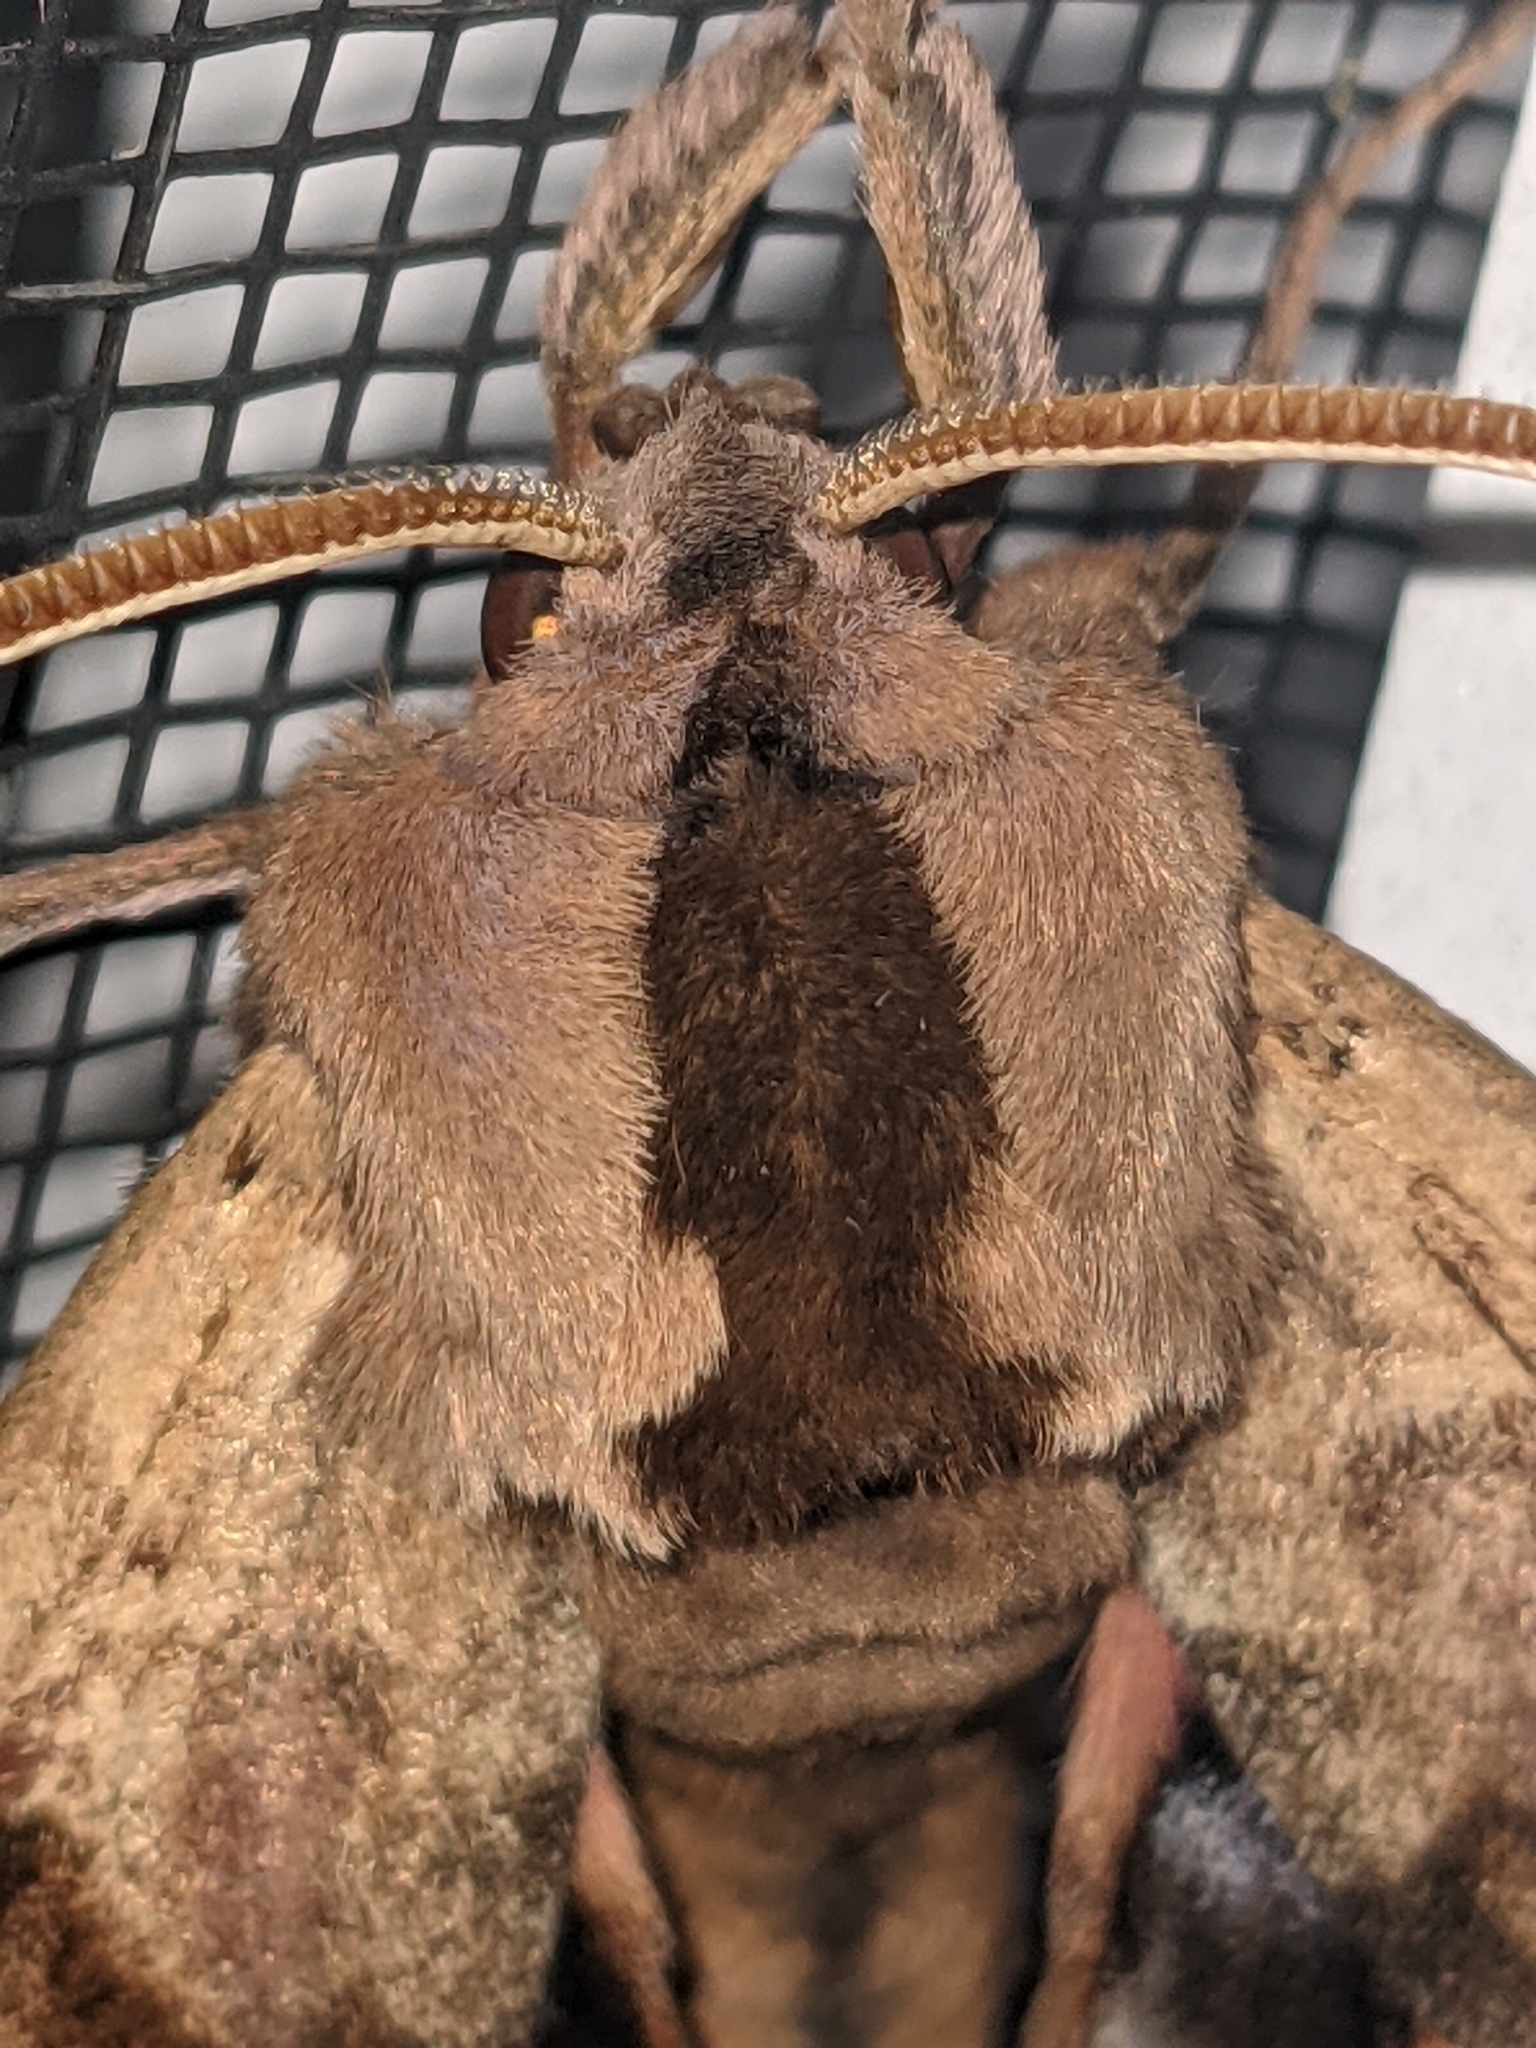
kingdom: Animalia
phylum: Arthropoda
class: Insecta
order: Lepidoptera
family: Sphingidae
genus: Paonias
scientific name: Paonias excaecata
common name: Blind-eyed sphinx
